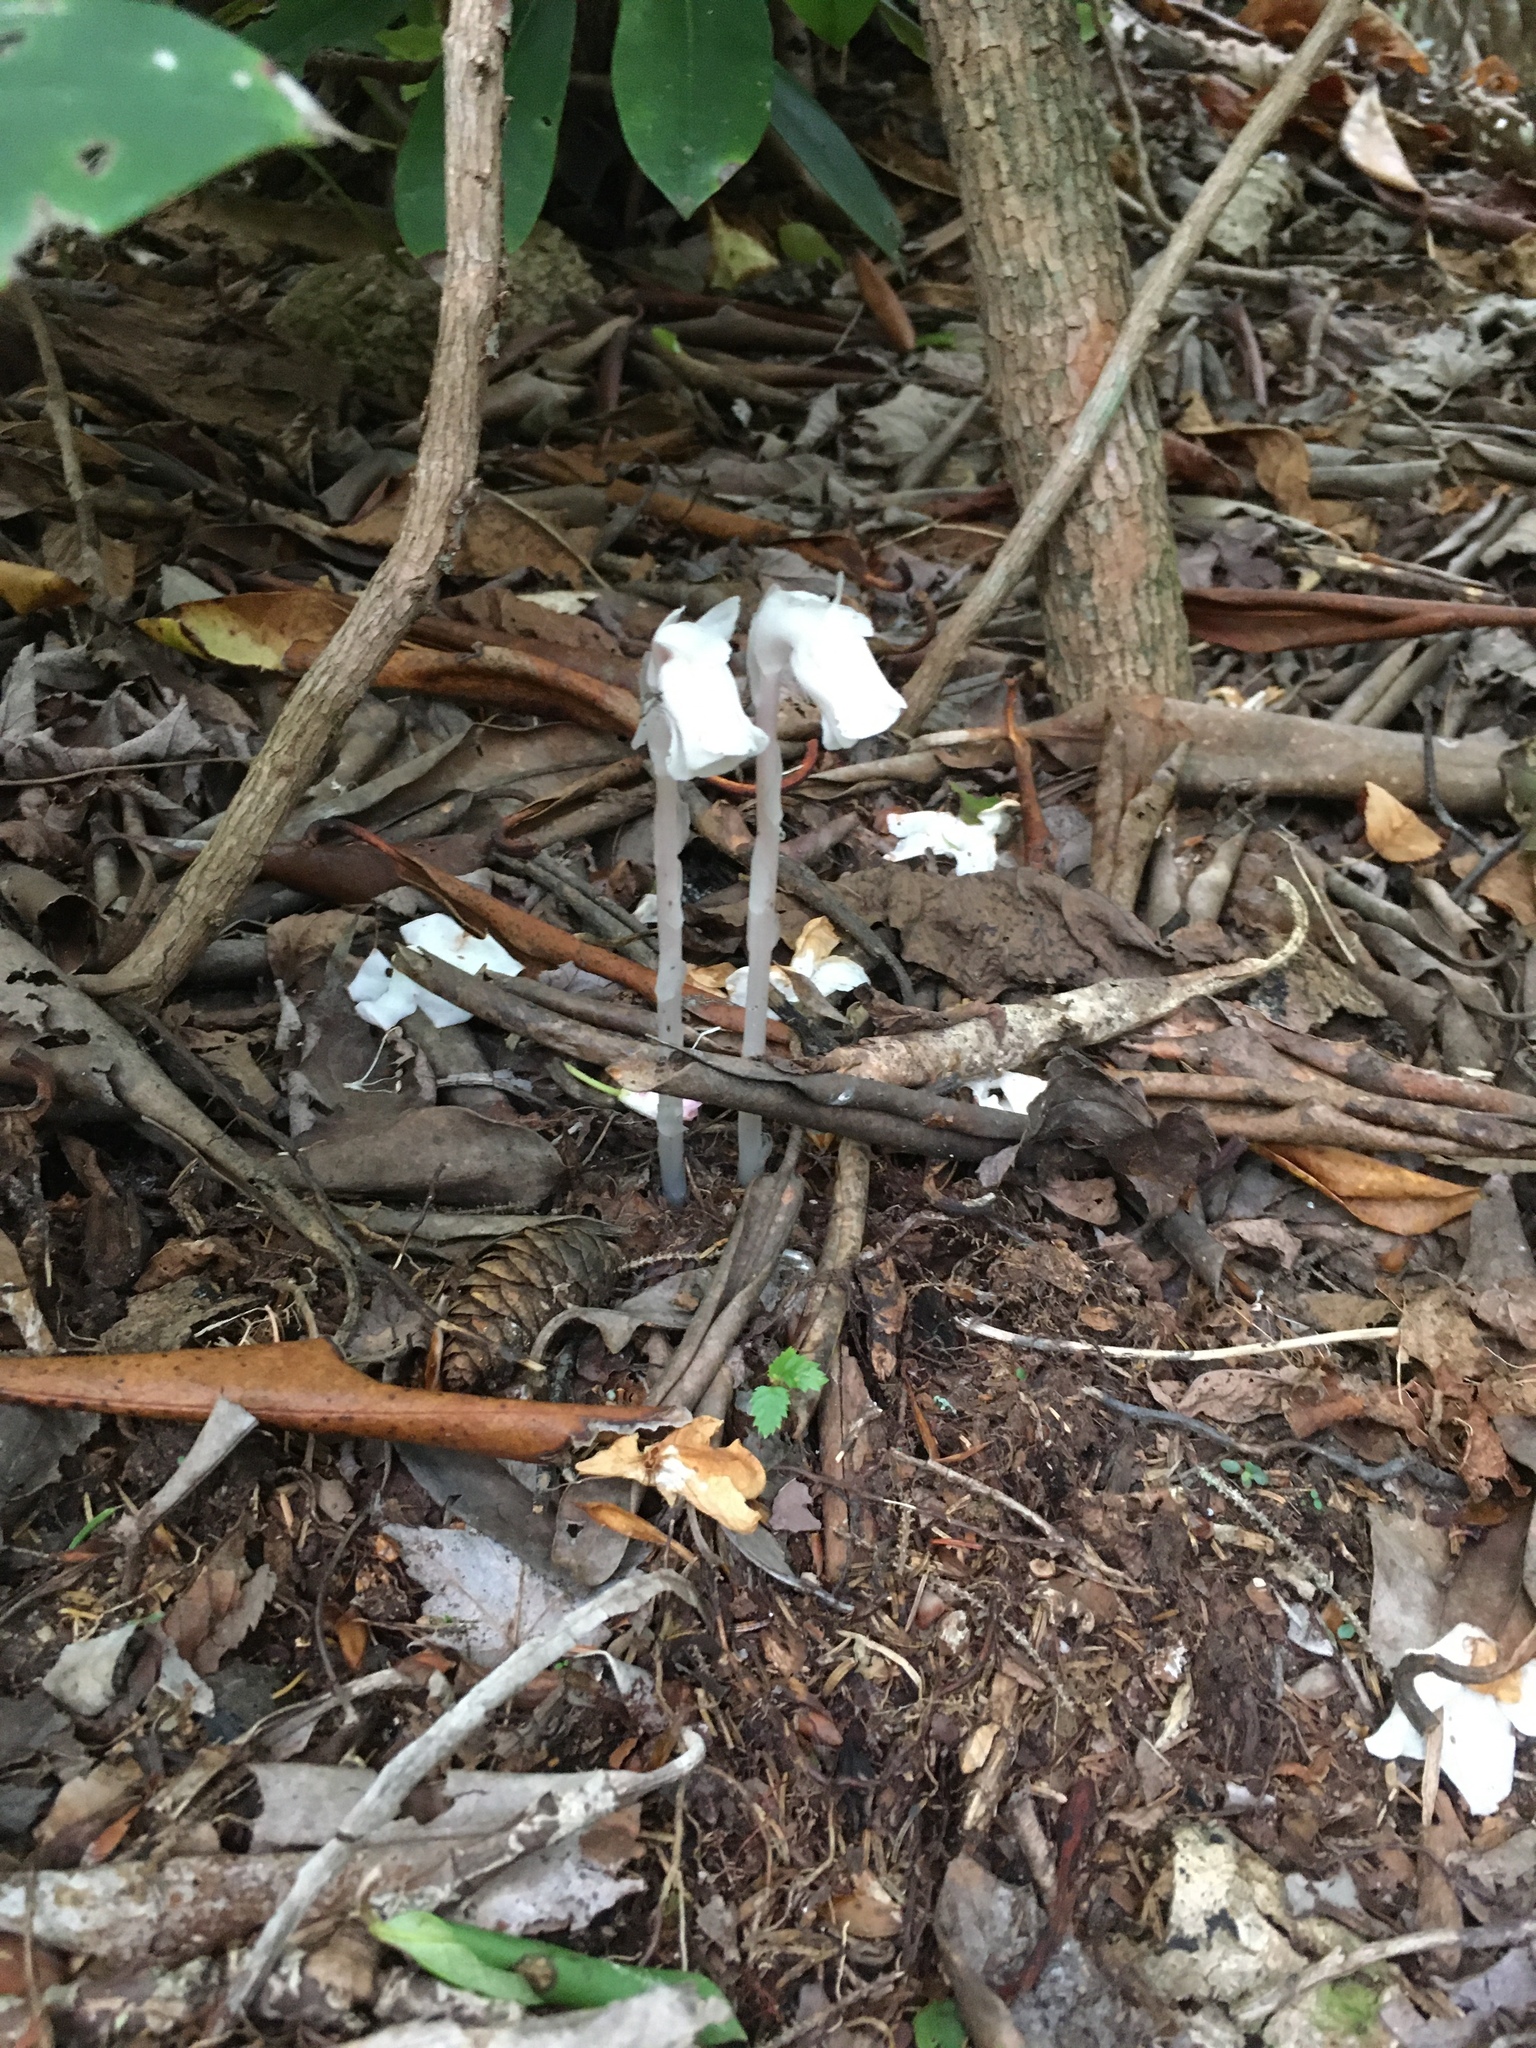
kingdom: Plantae
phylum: Tracheophyta
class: Magnoliopsida
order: Ericales
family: Ericaceae
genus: Monotropa
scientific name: Monotropa uniflora
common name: Convulsion root
